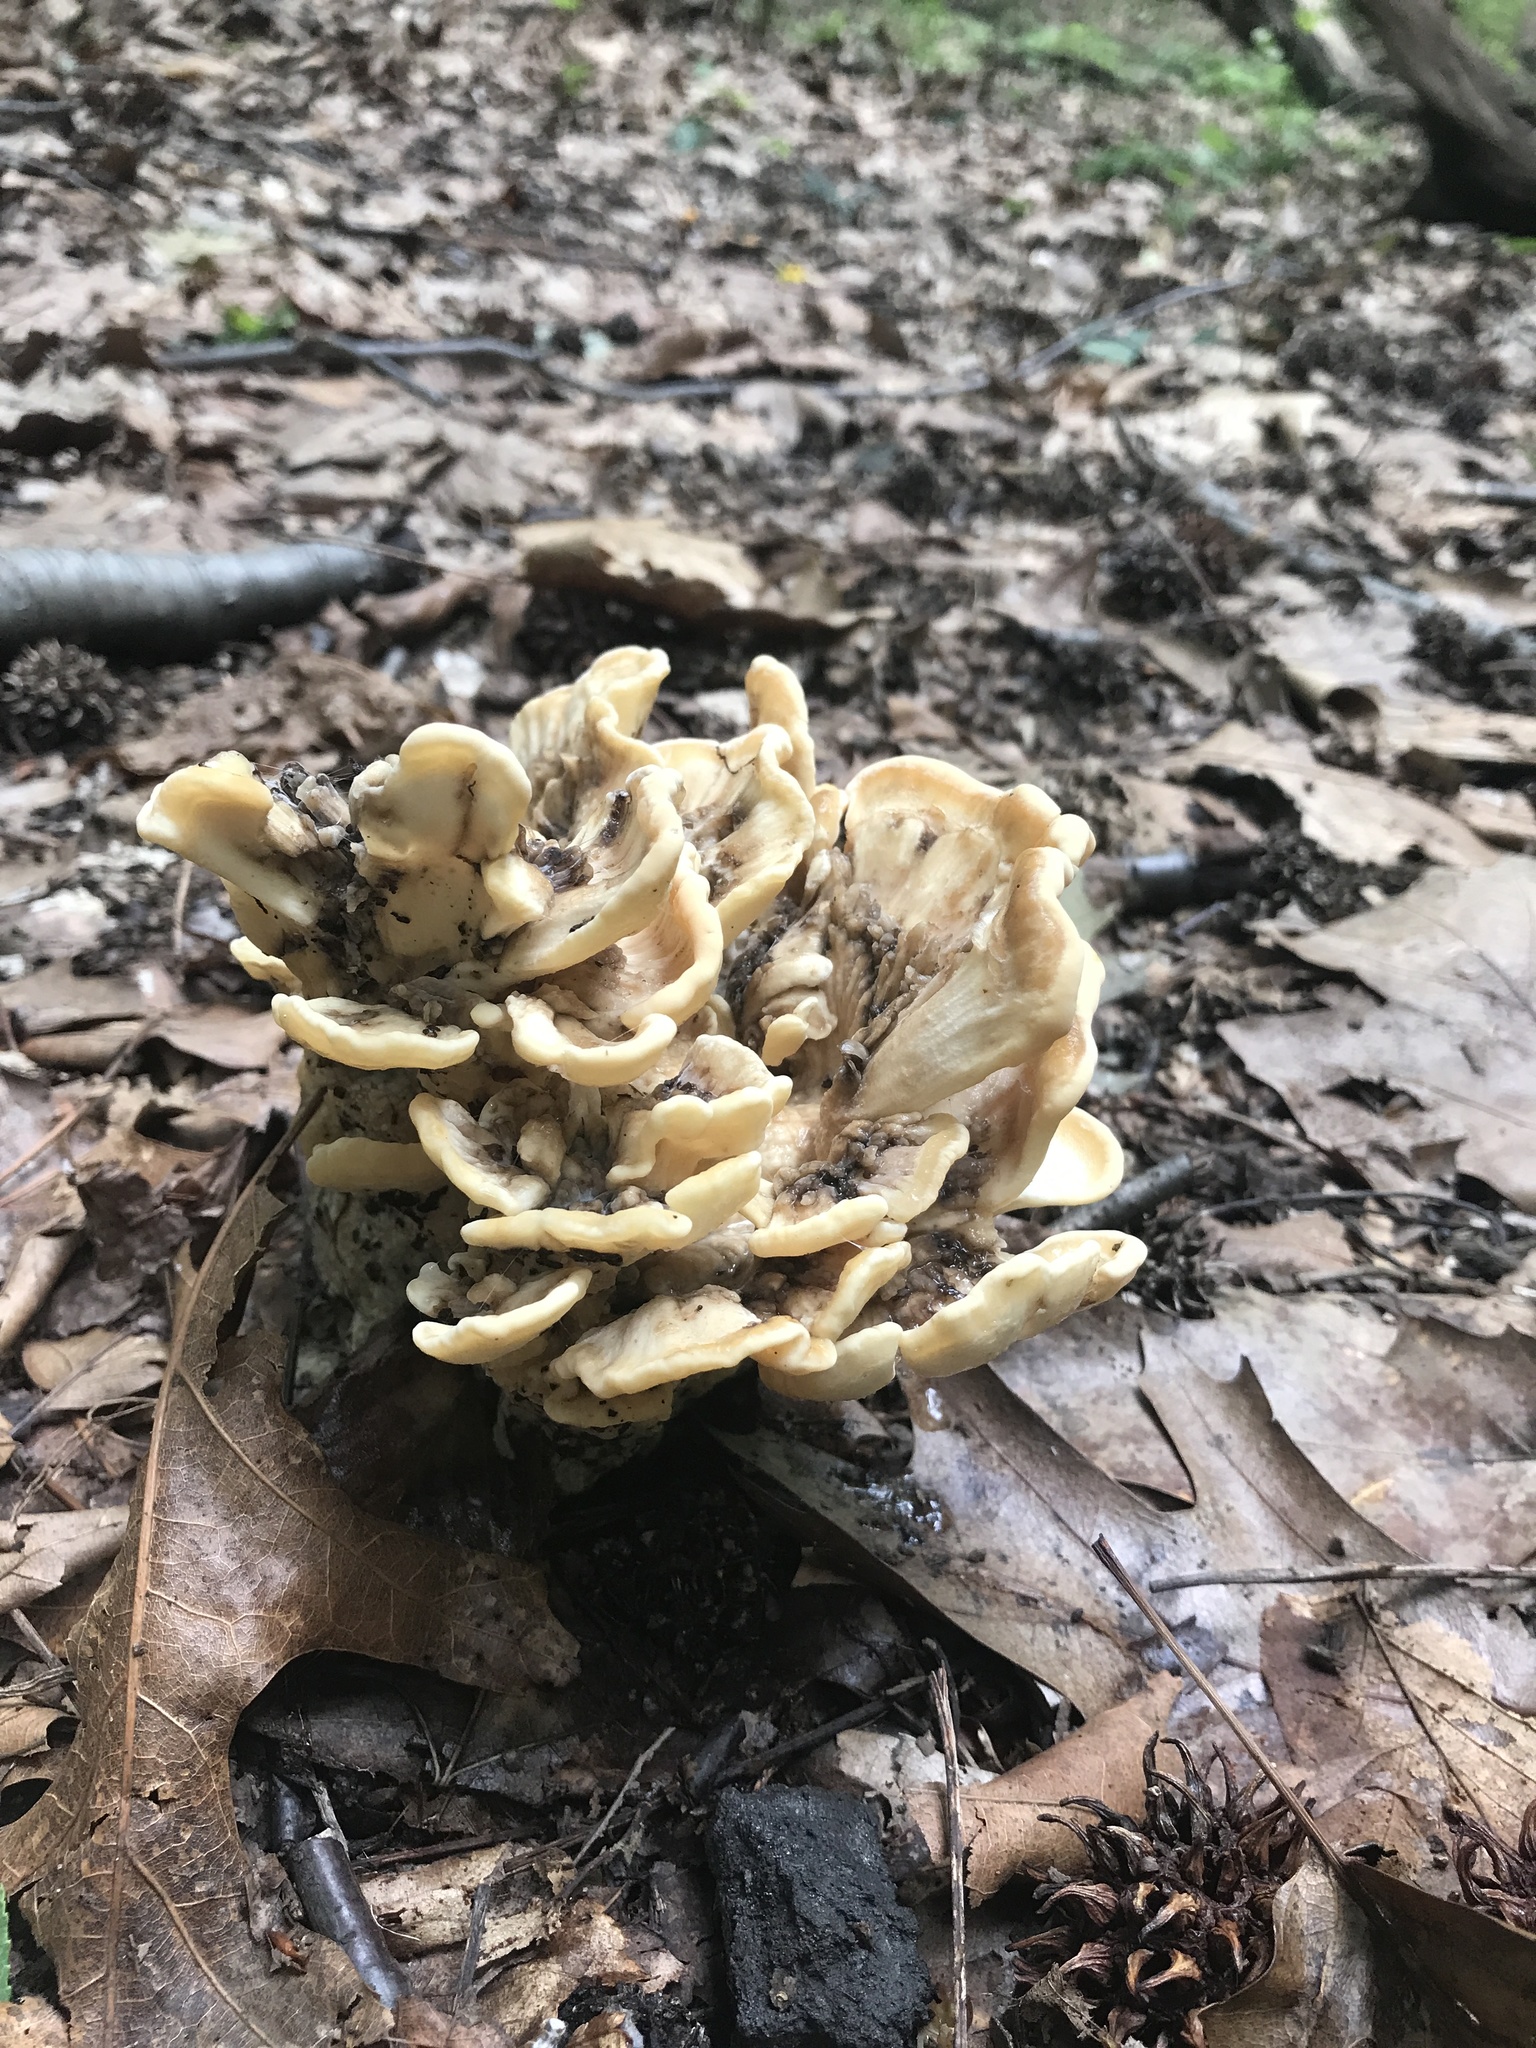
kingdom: Fungi
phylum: Basidiomycota
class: Agaricomycetes
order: Polyporales
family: Meripilaceae
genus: Meripilus
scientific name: Meripilus sumstinei
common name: Black-staining polypore
